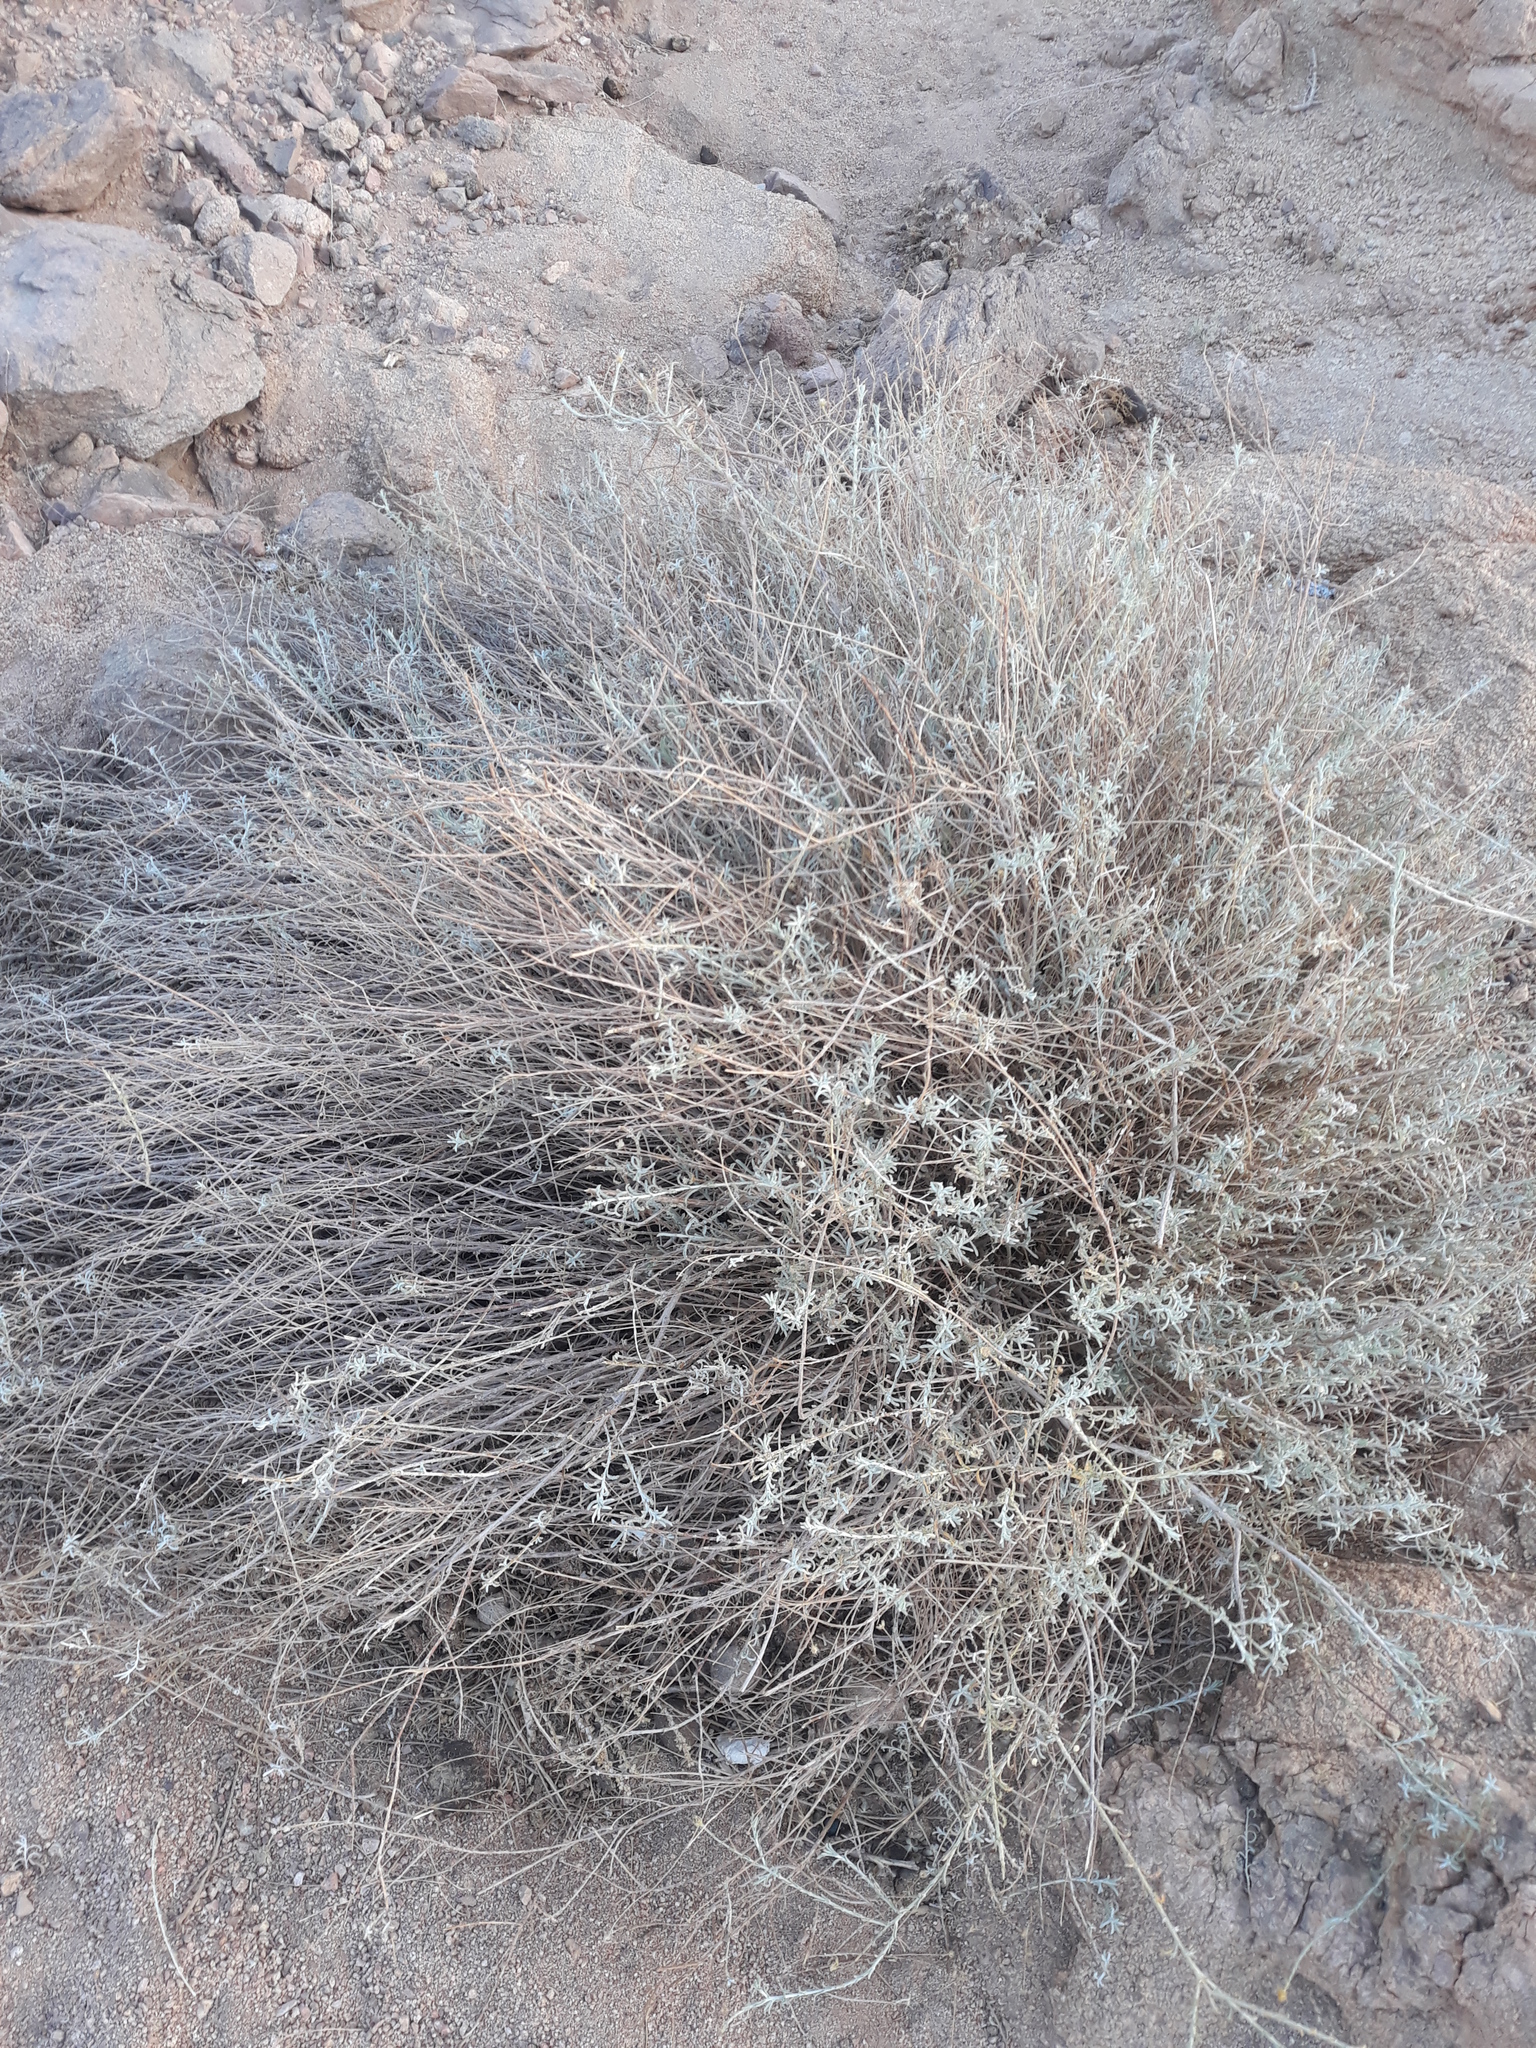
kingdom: Plantae
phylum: Tracheophyta
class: Magnoliopsida
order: Asterales
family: Asteraceae
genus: Pulicaria
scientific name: Pulicaria undulata
